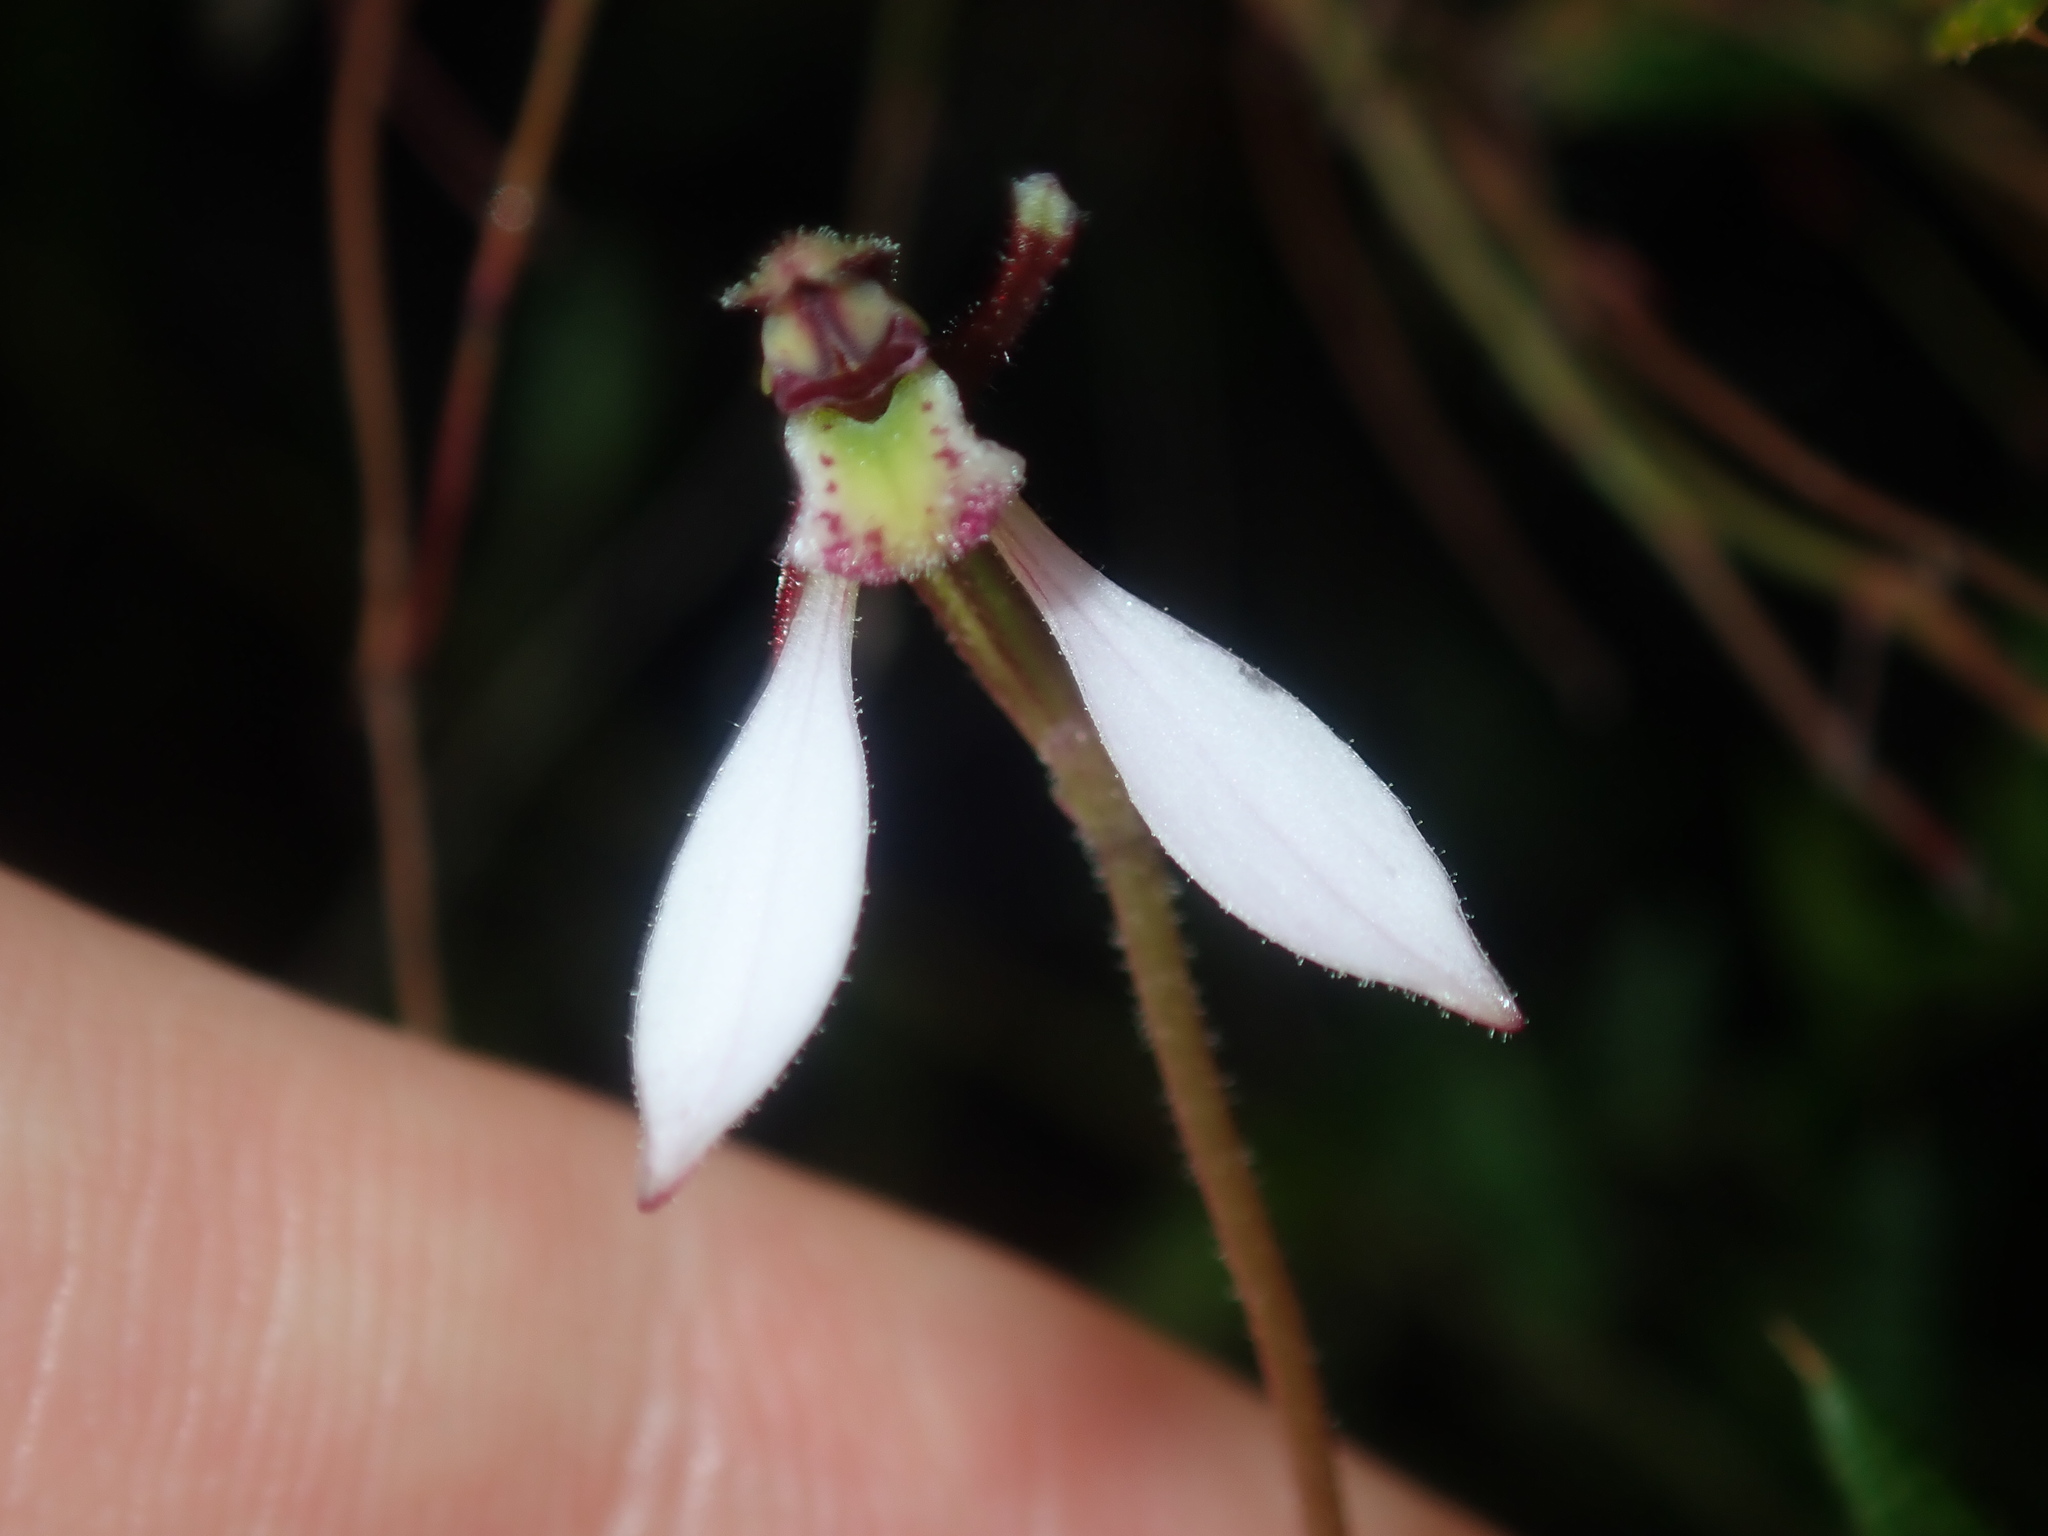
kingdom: Plantae
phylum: Tracheophyta
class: Liliopsida
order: Asparagales
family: Orchidaceae
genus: Eriochilus
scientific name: Eriochilus cucullatus
